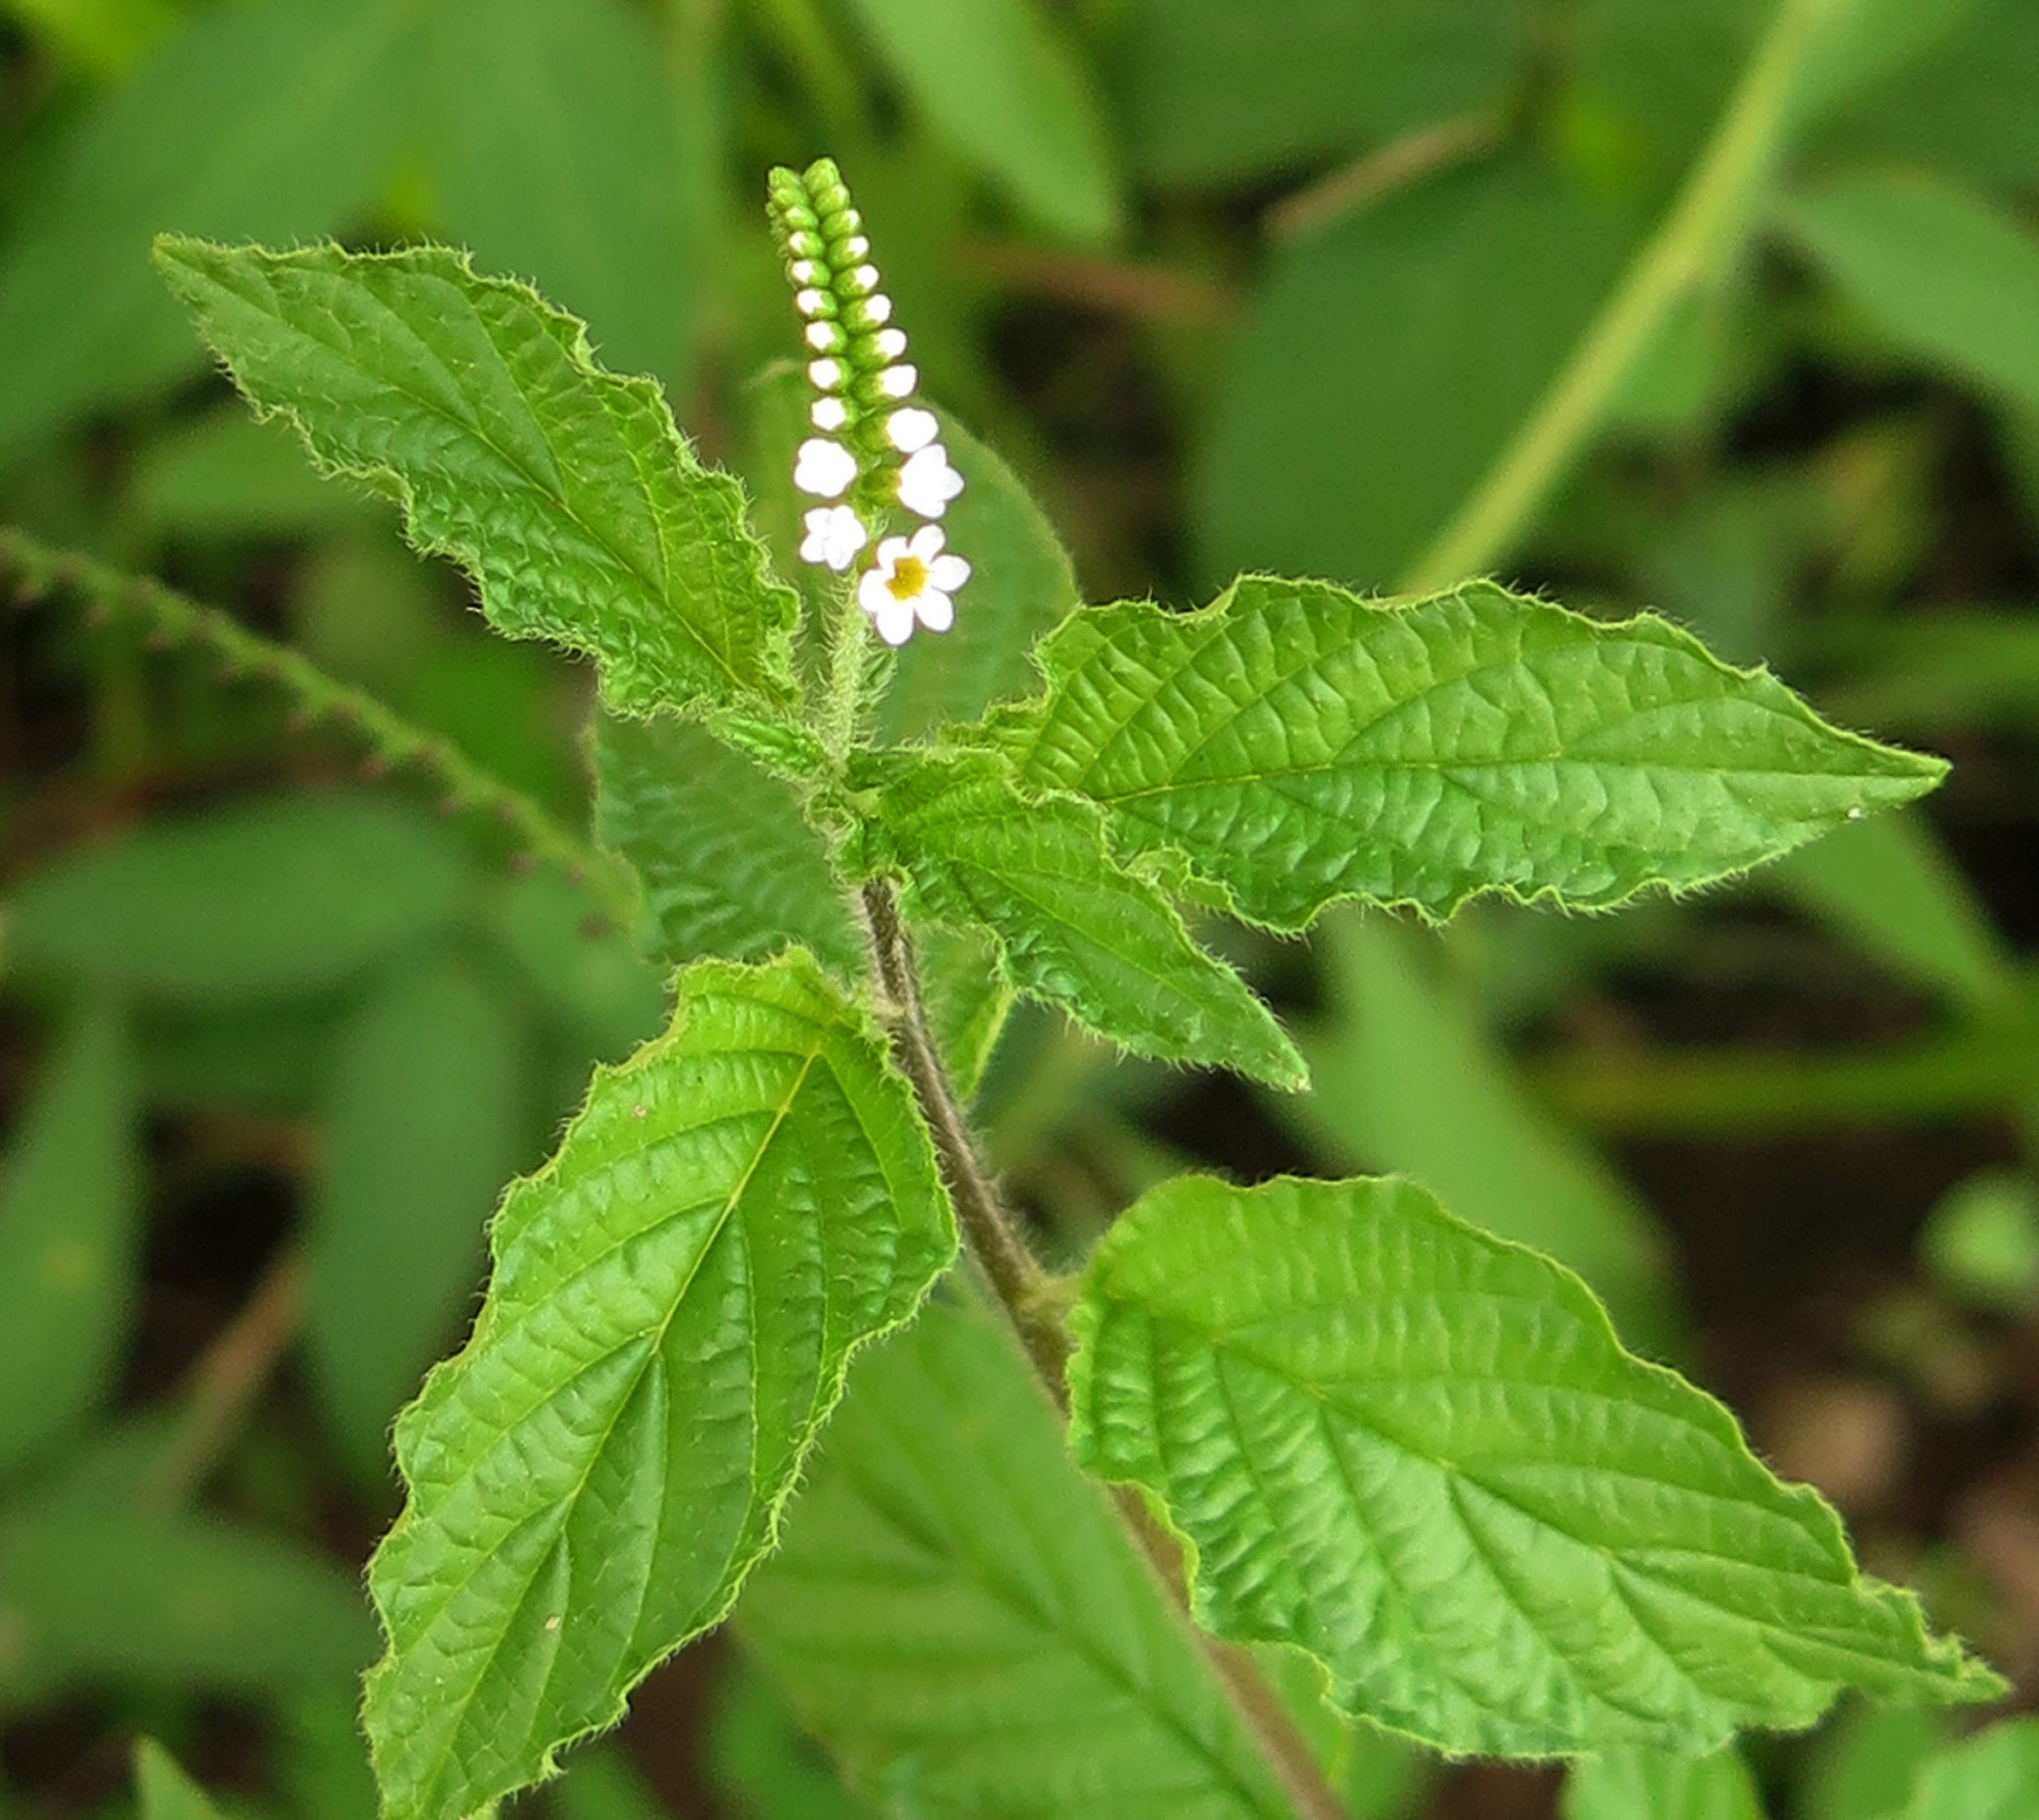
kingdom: Plantae
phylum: Tracheophyta
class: Magnoliopsida
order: Boraginales
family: Heliotropiaceae
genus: Heliotropium
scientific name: Heliotropium angiospermum
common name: Eye bright
